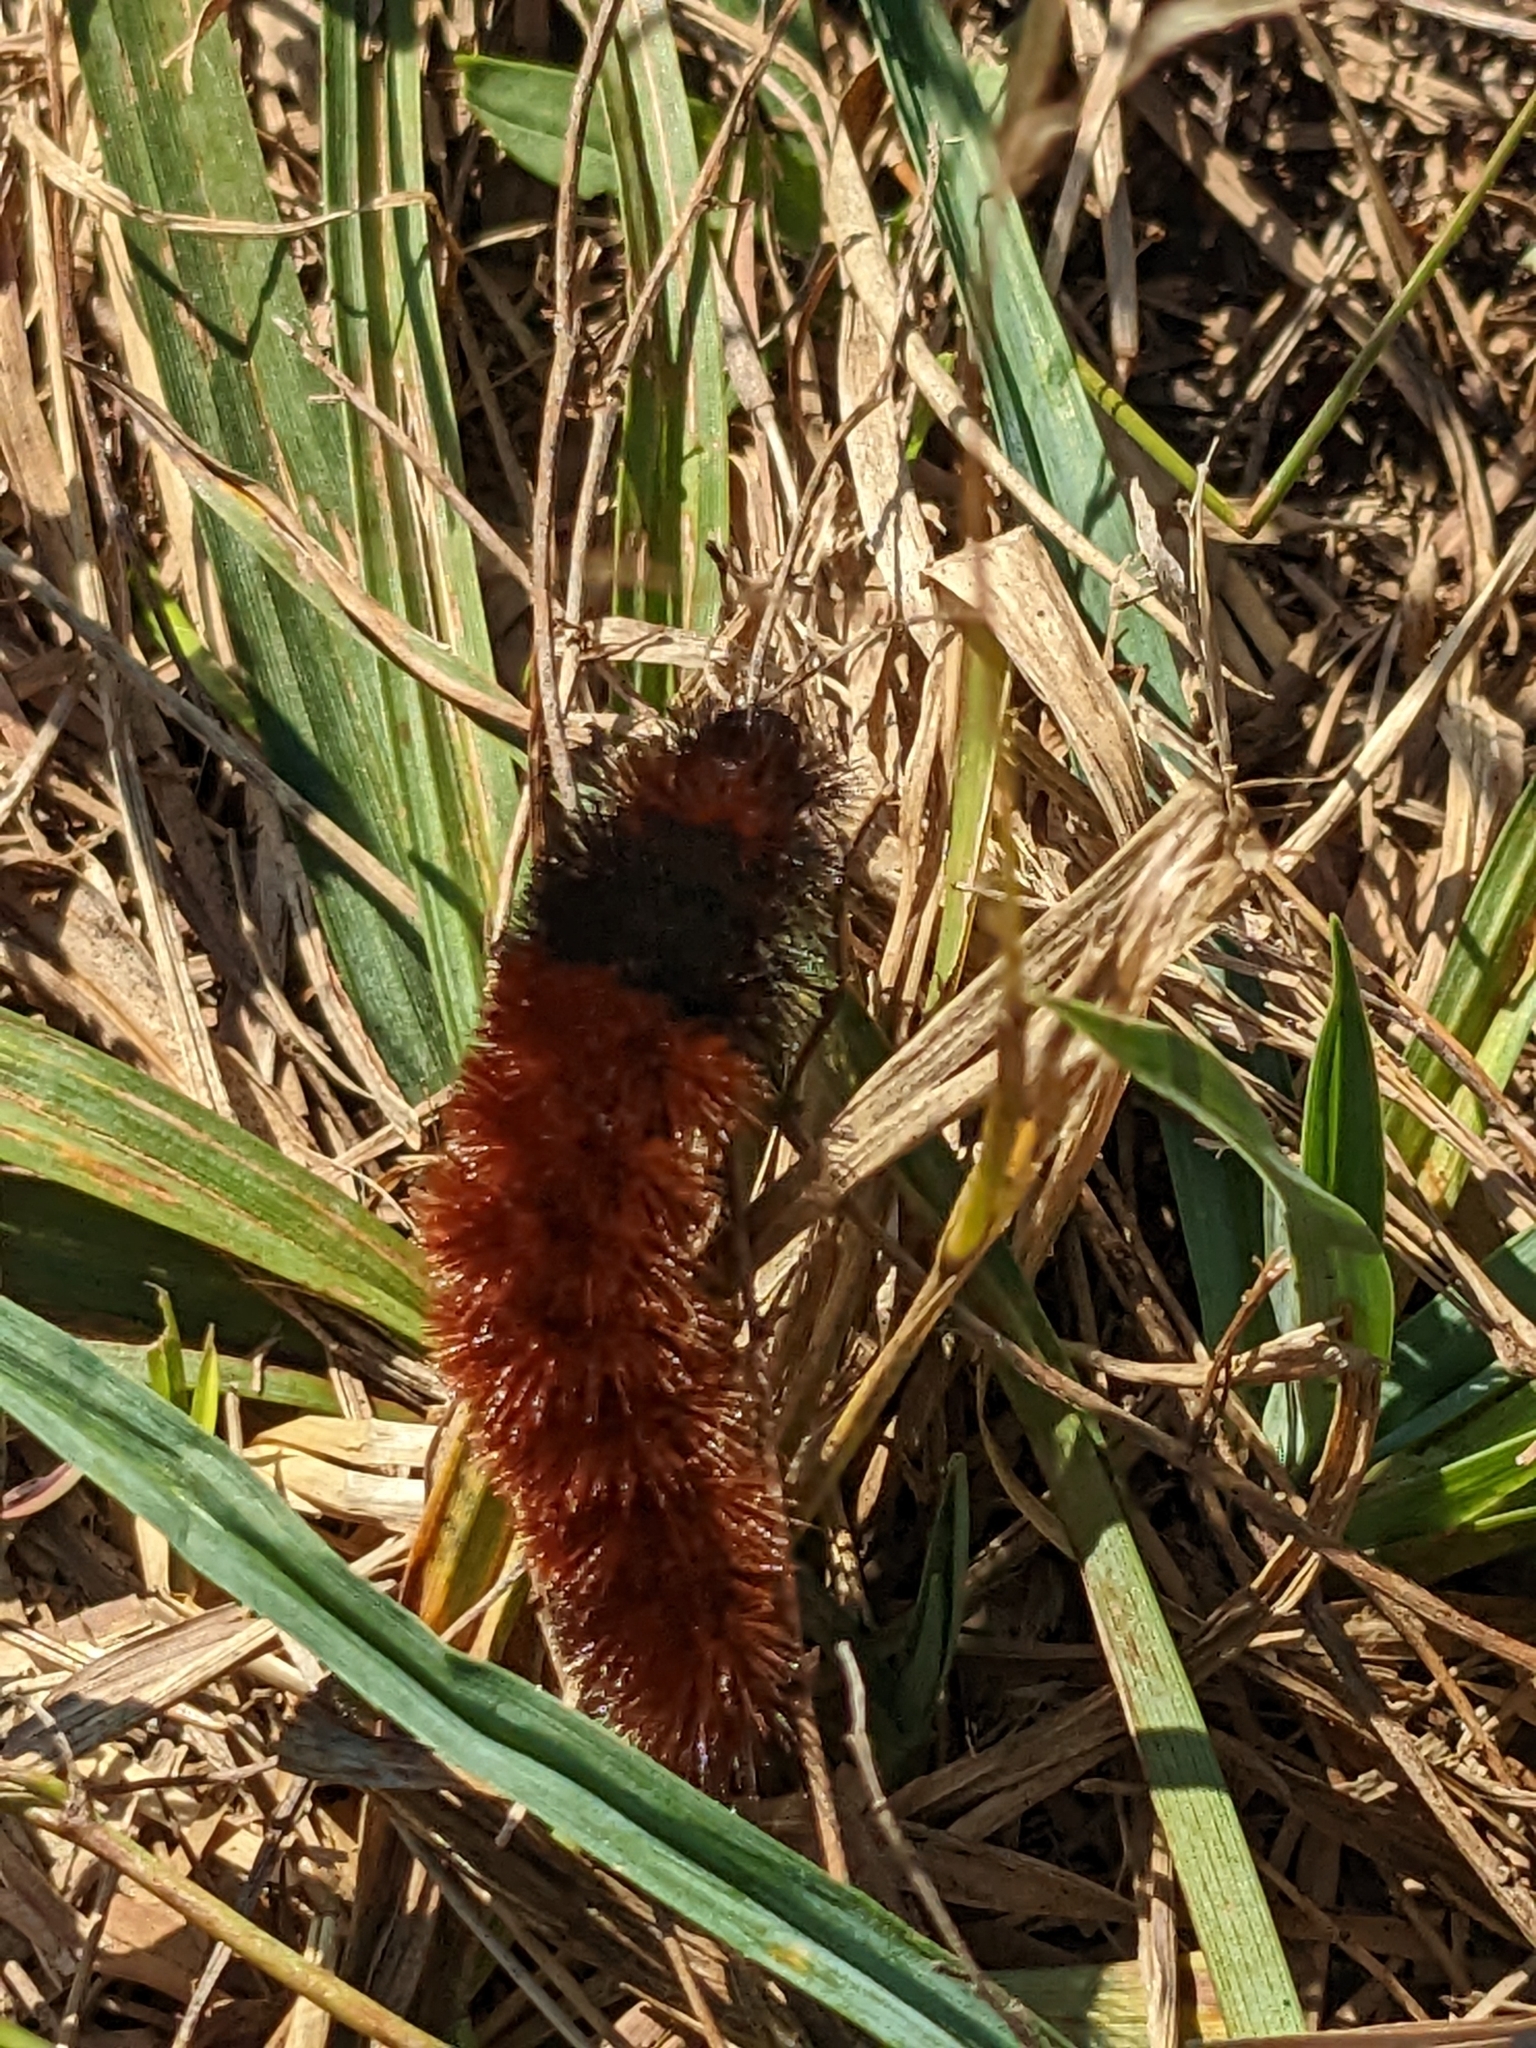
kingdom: Animalia
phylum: Arthropoda
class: Insecta
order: Lepidoptera
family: Erebidae
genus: Pyrrharctia
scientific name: Pyrrharctia isabella
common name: Isabella tiger moth
